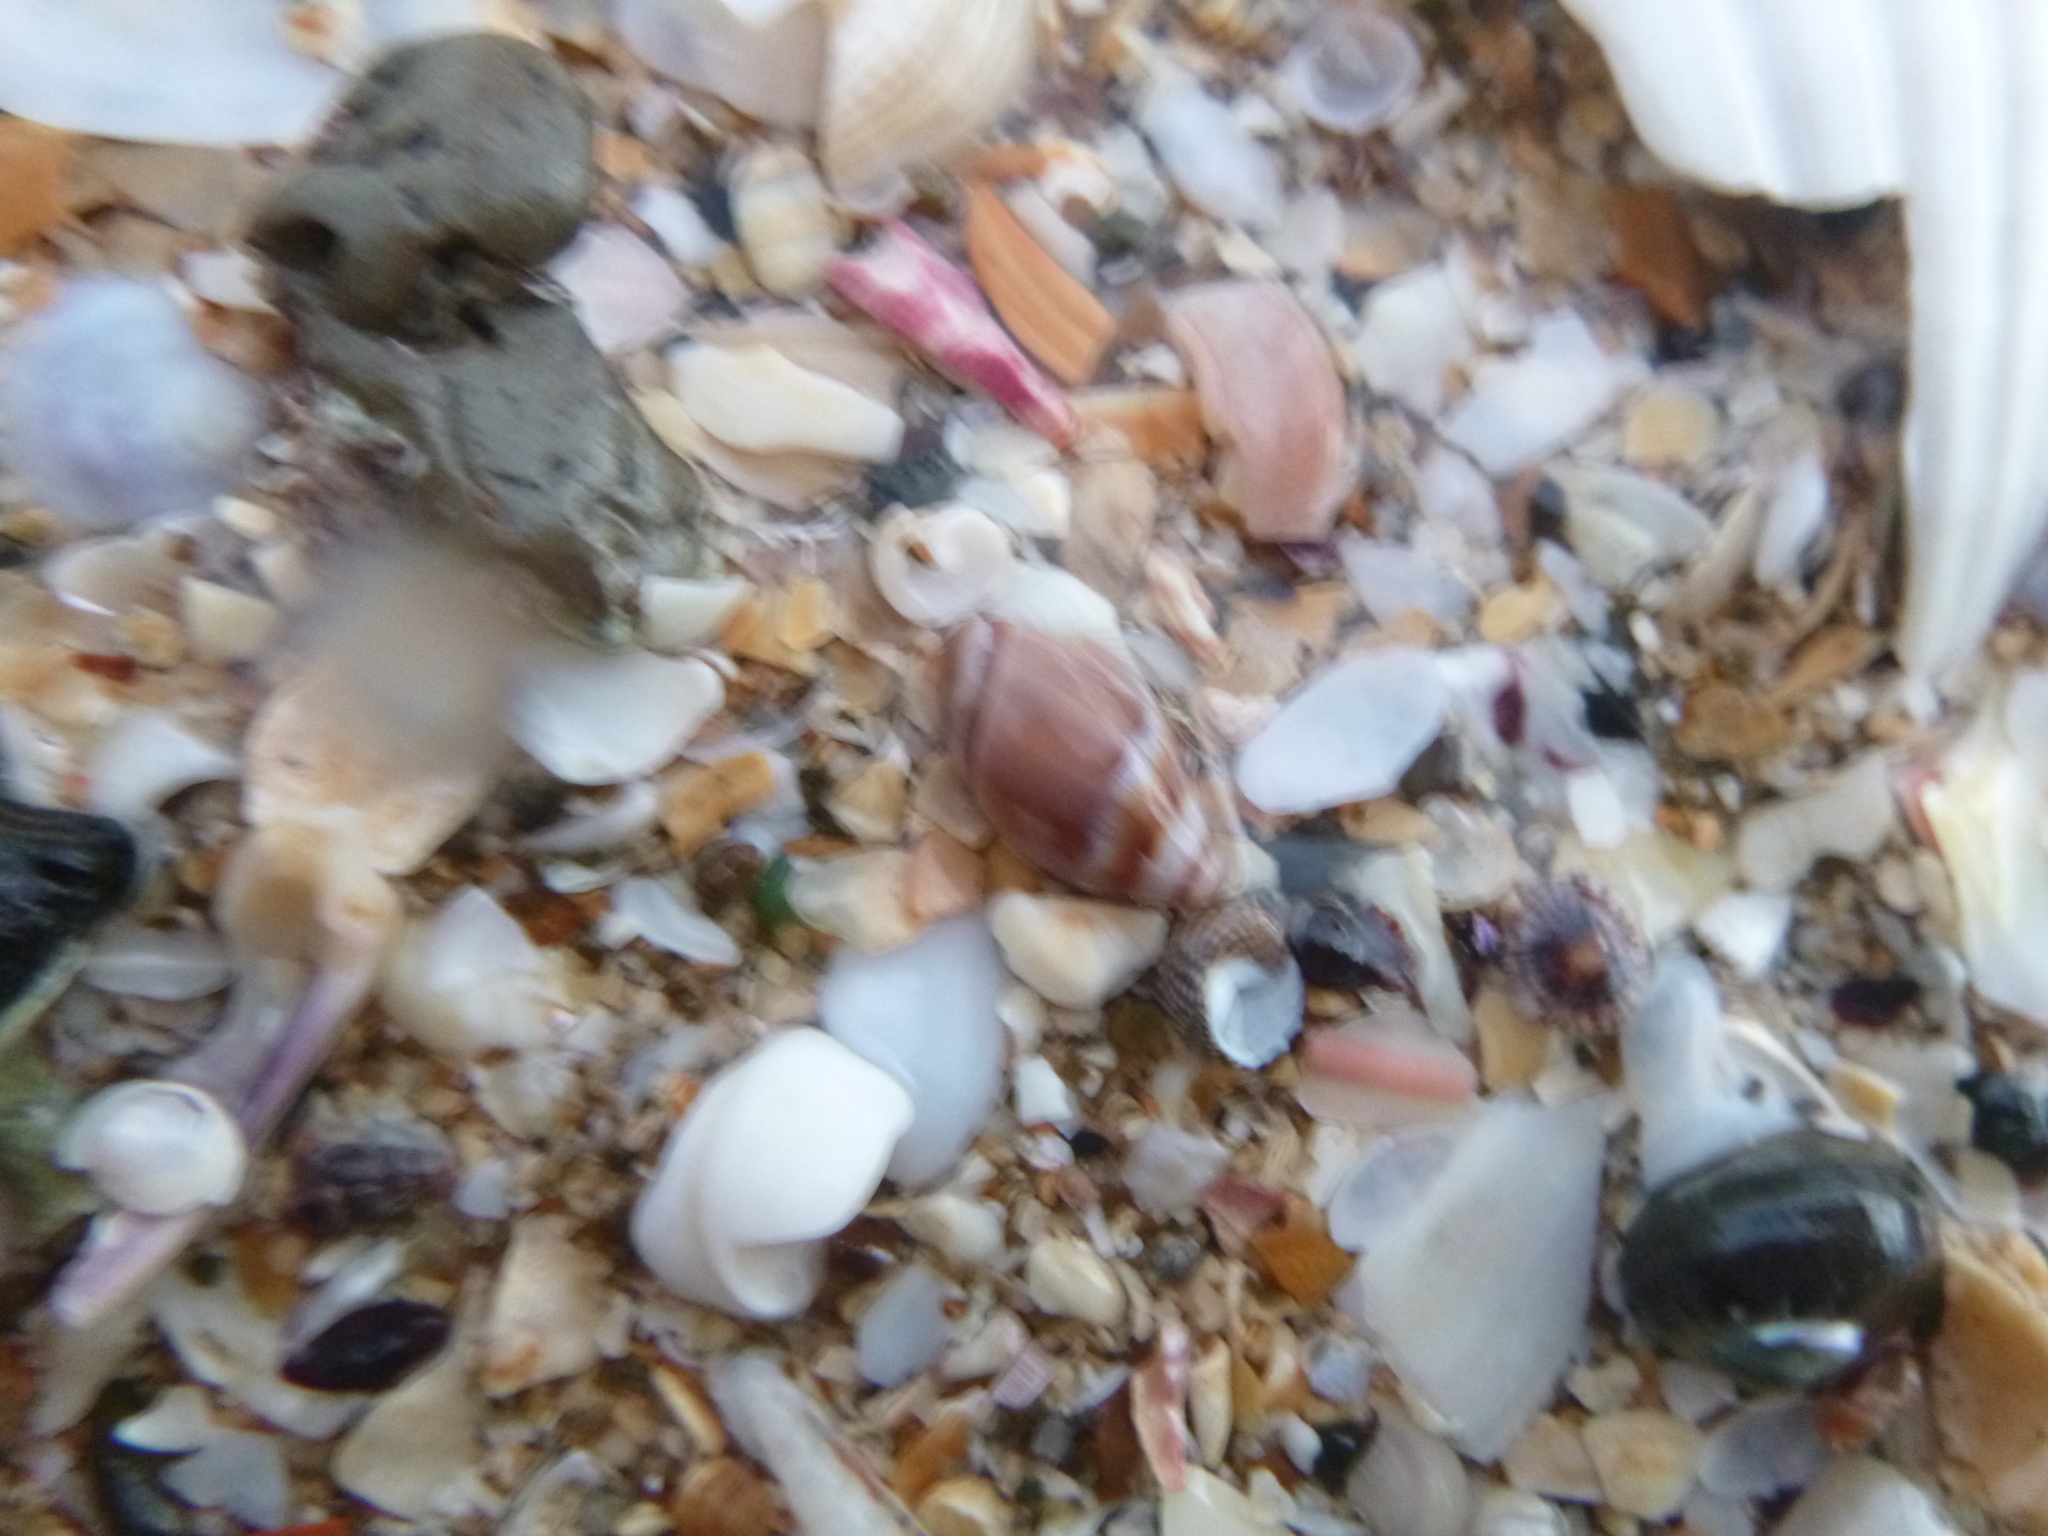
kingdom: Animalia
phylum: Mollusca
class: Gastropoda
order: Neogastropoda
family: Ancillariidae
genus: Amalda
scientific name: Amalda australis
